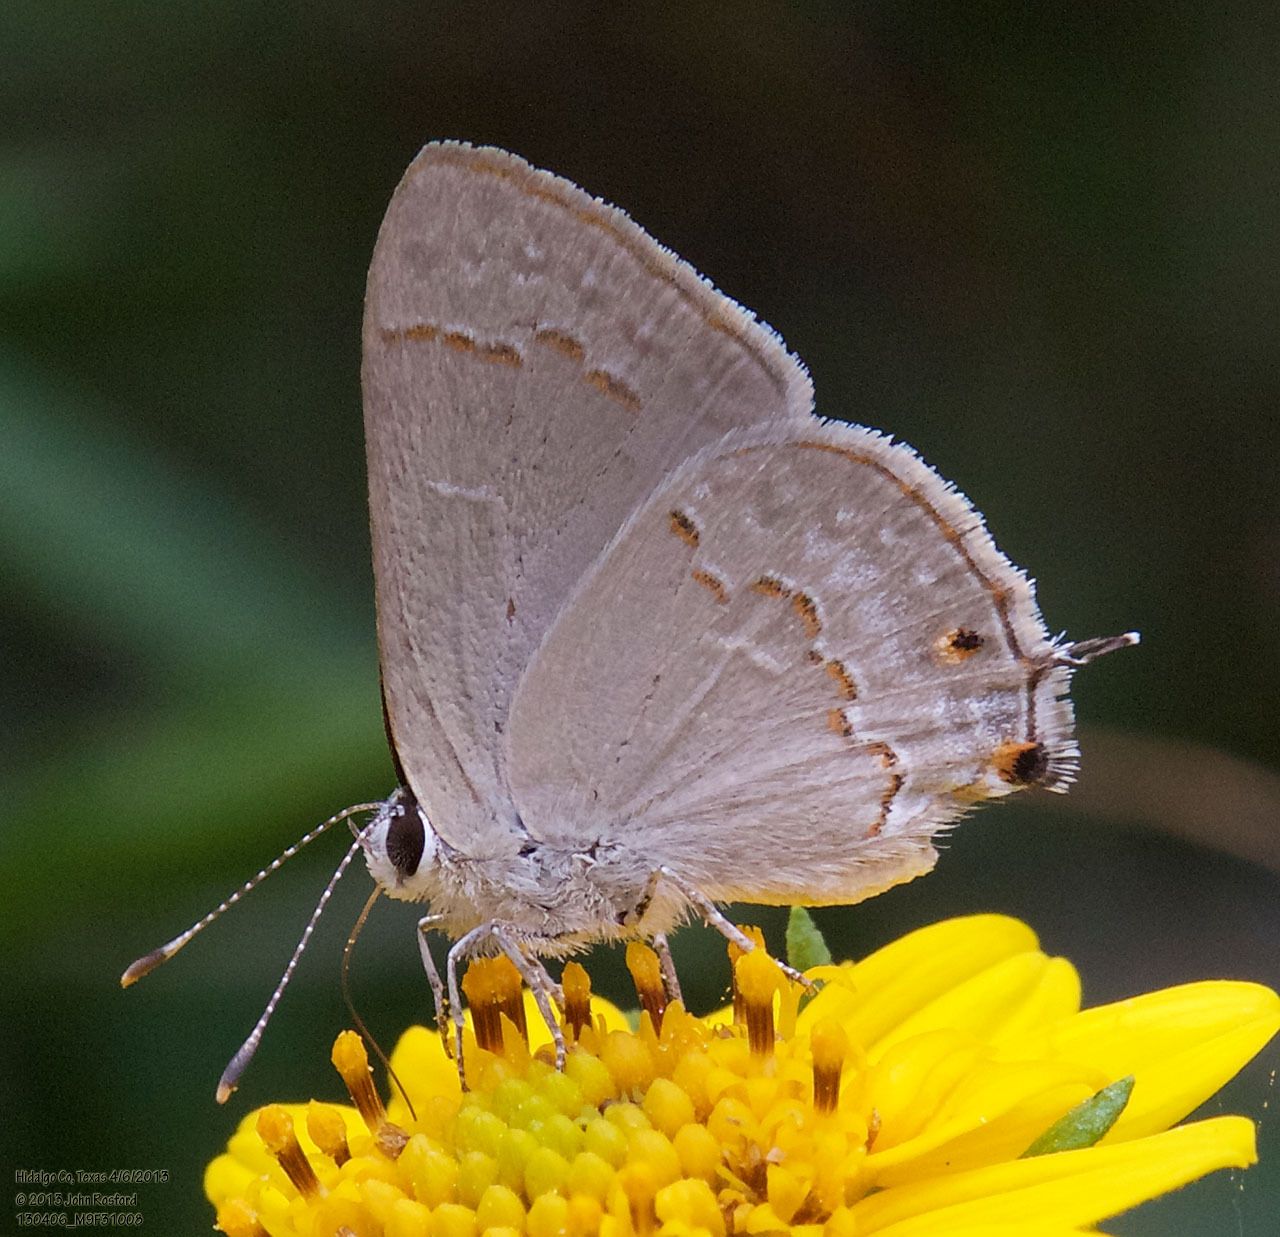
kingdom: Animalia
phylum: Arthropoda
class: Insecta
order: Lepidoptera
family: Lycaenidae
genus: Thecla
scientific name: Thecla rufofusca
